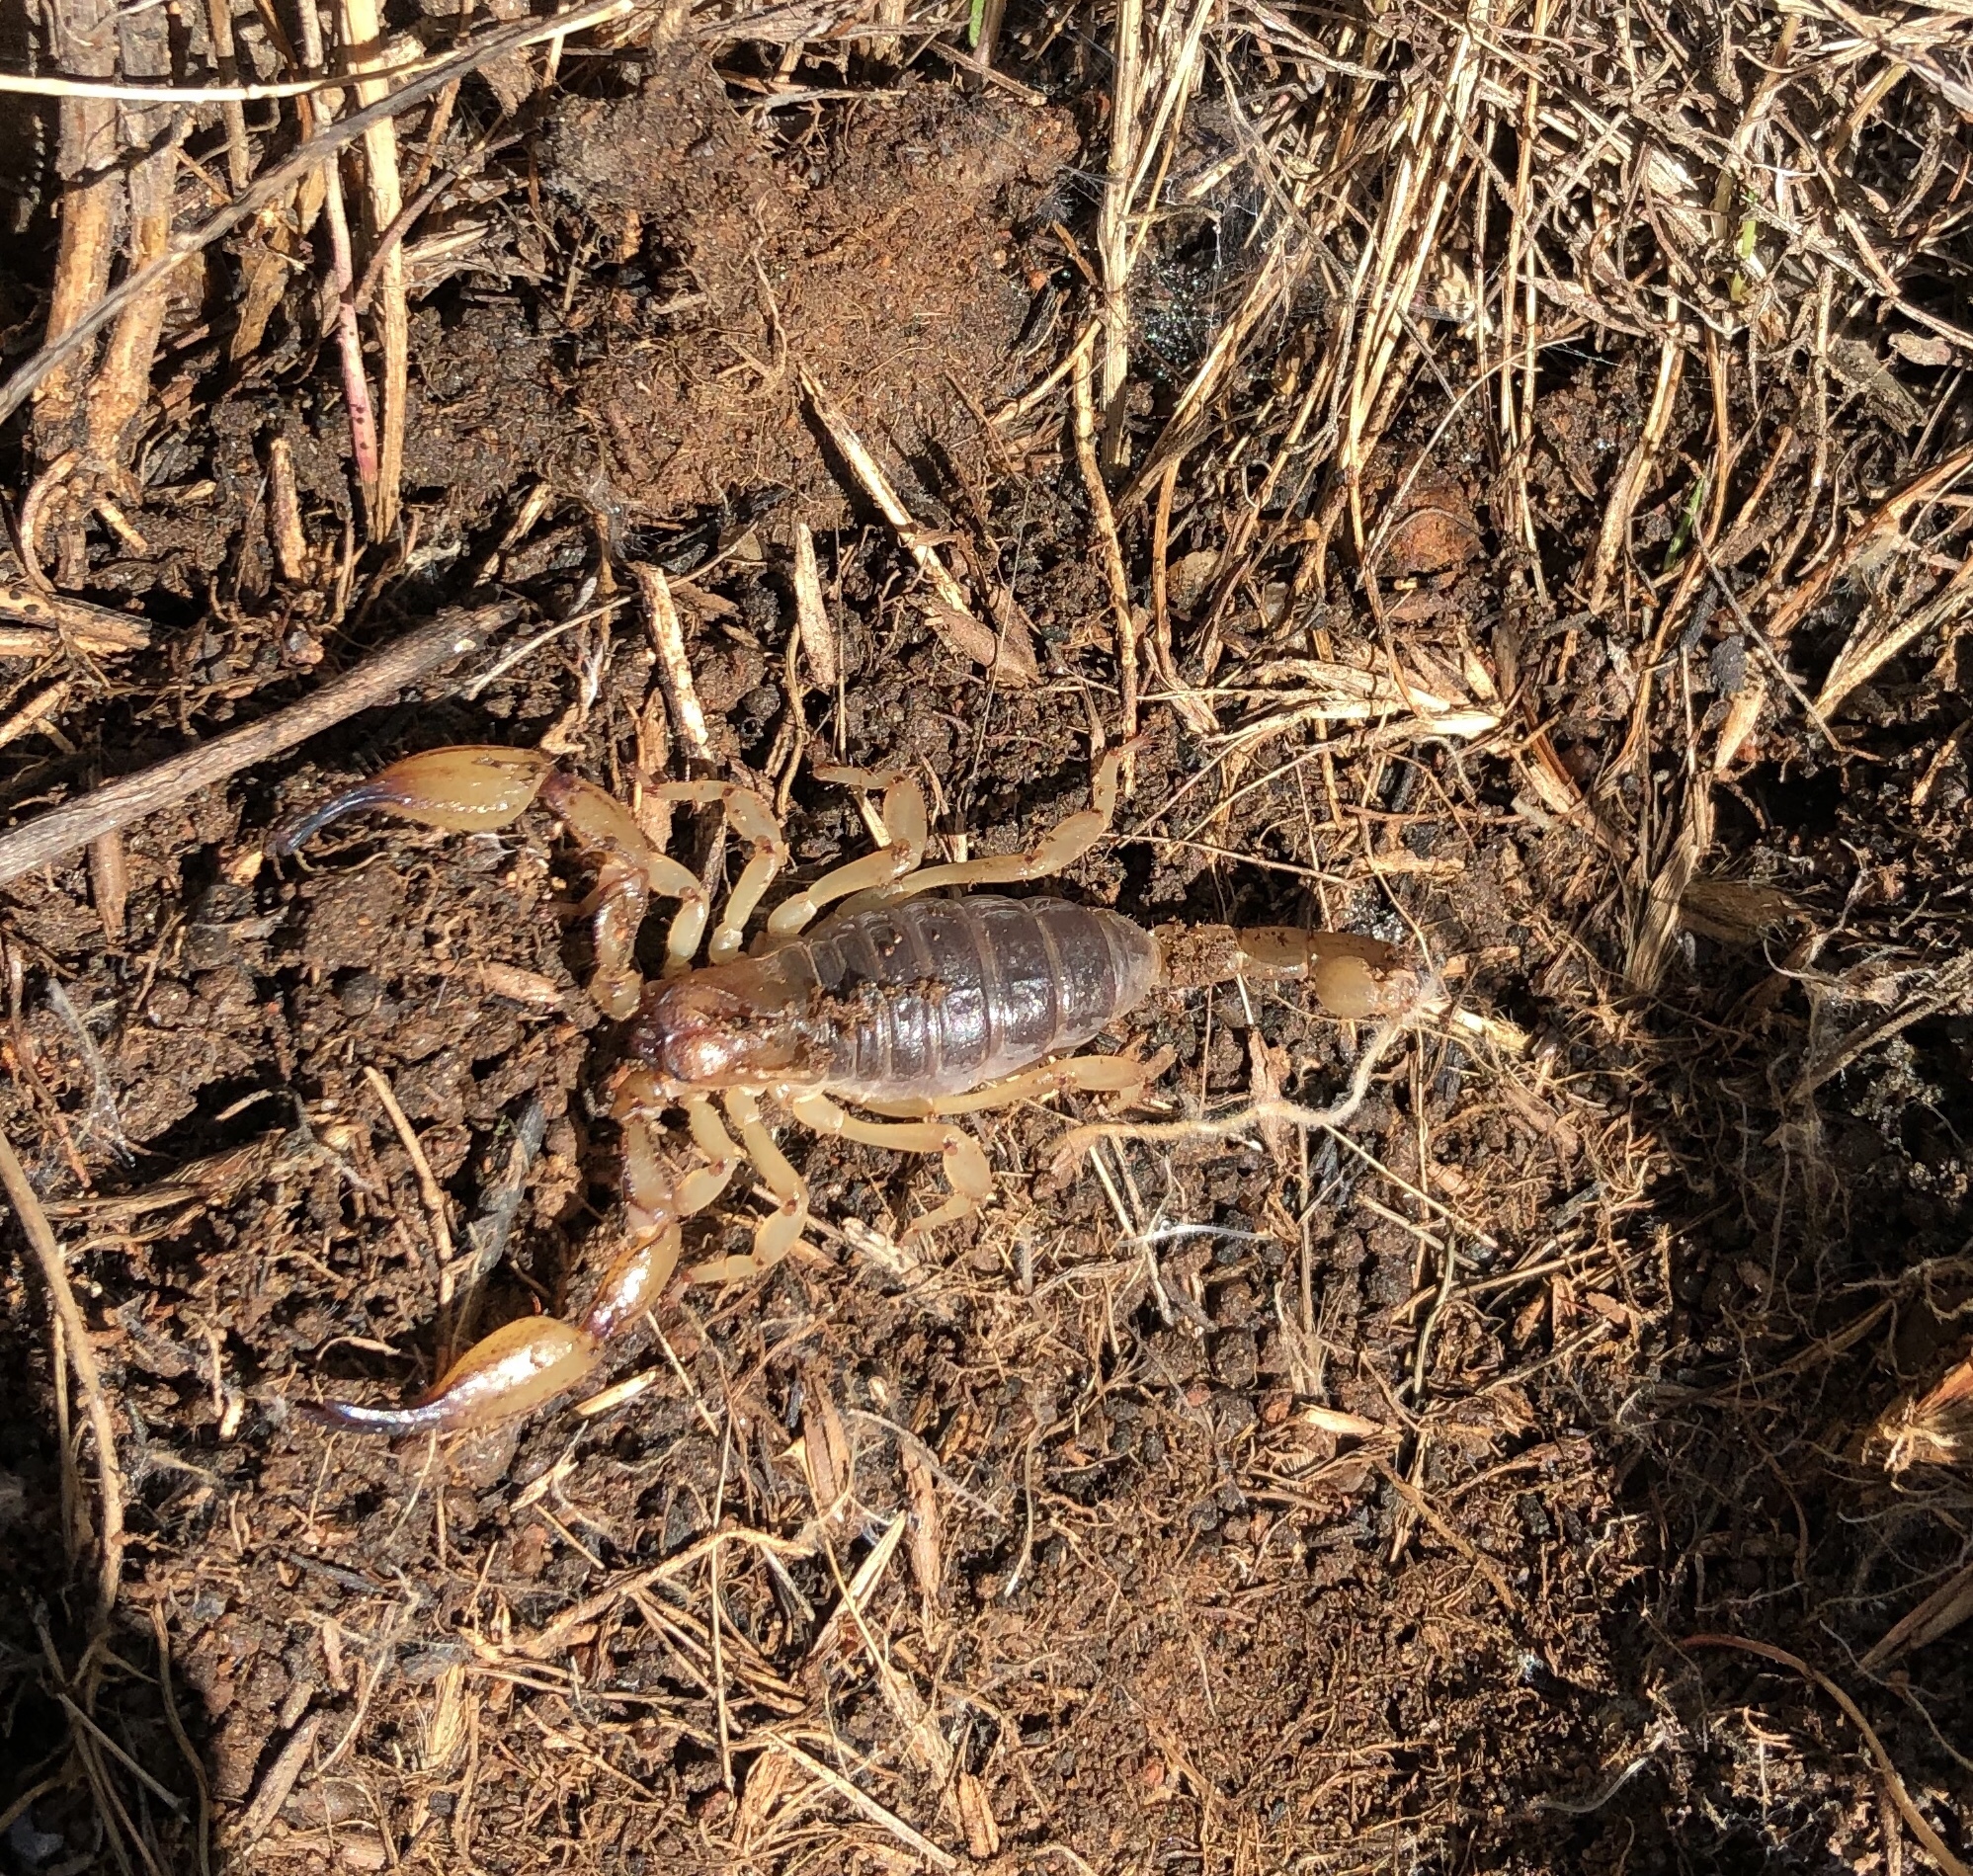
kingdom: Animalia
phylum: Arthropoda
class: Arachnida
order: Scorpiones
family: Chactidae
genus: Anuroctonus
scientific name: Anuroctonus pococki
